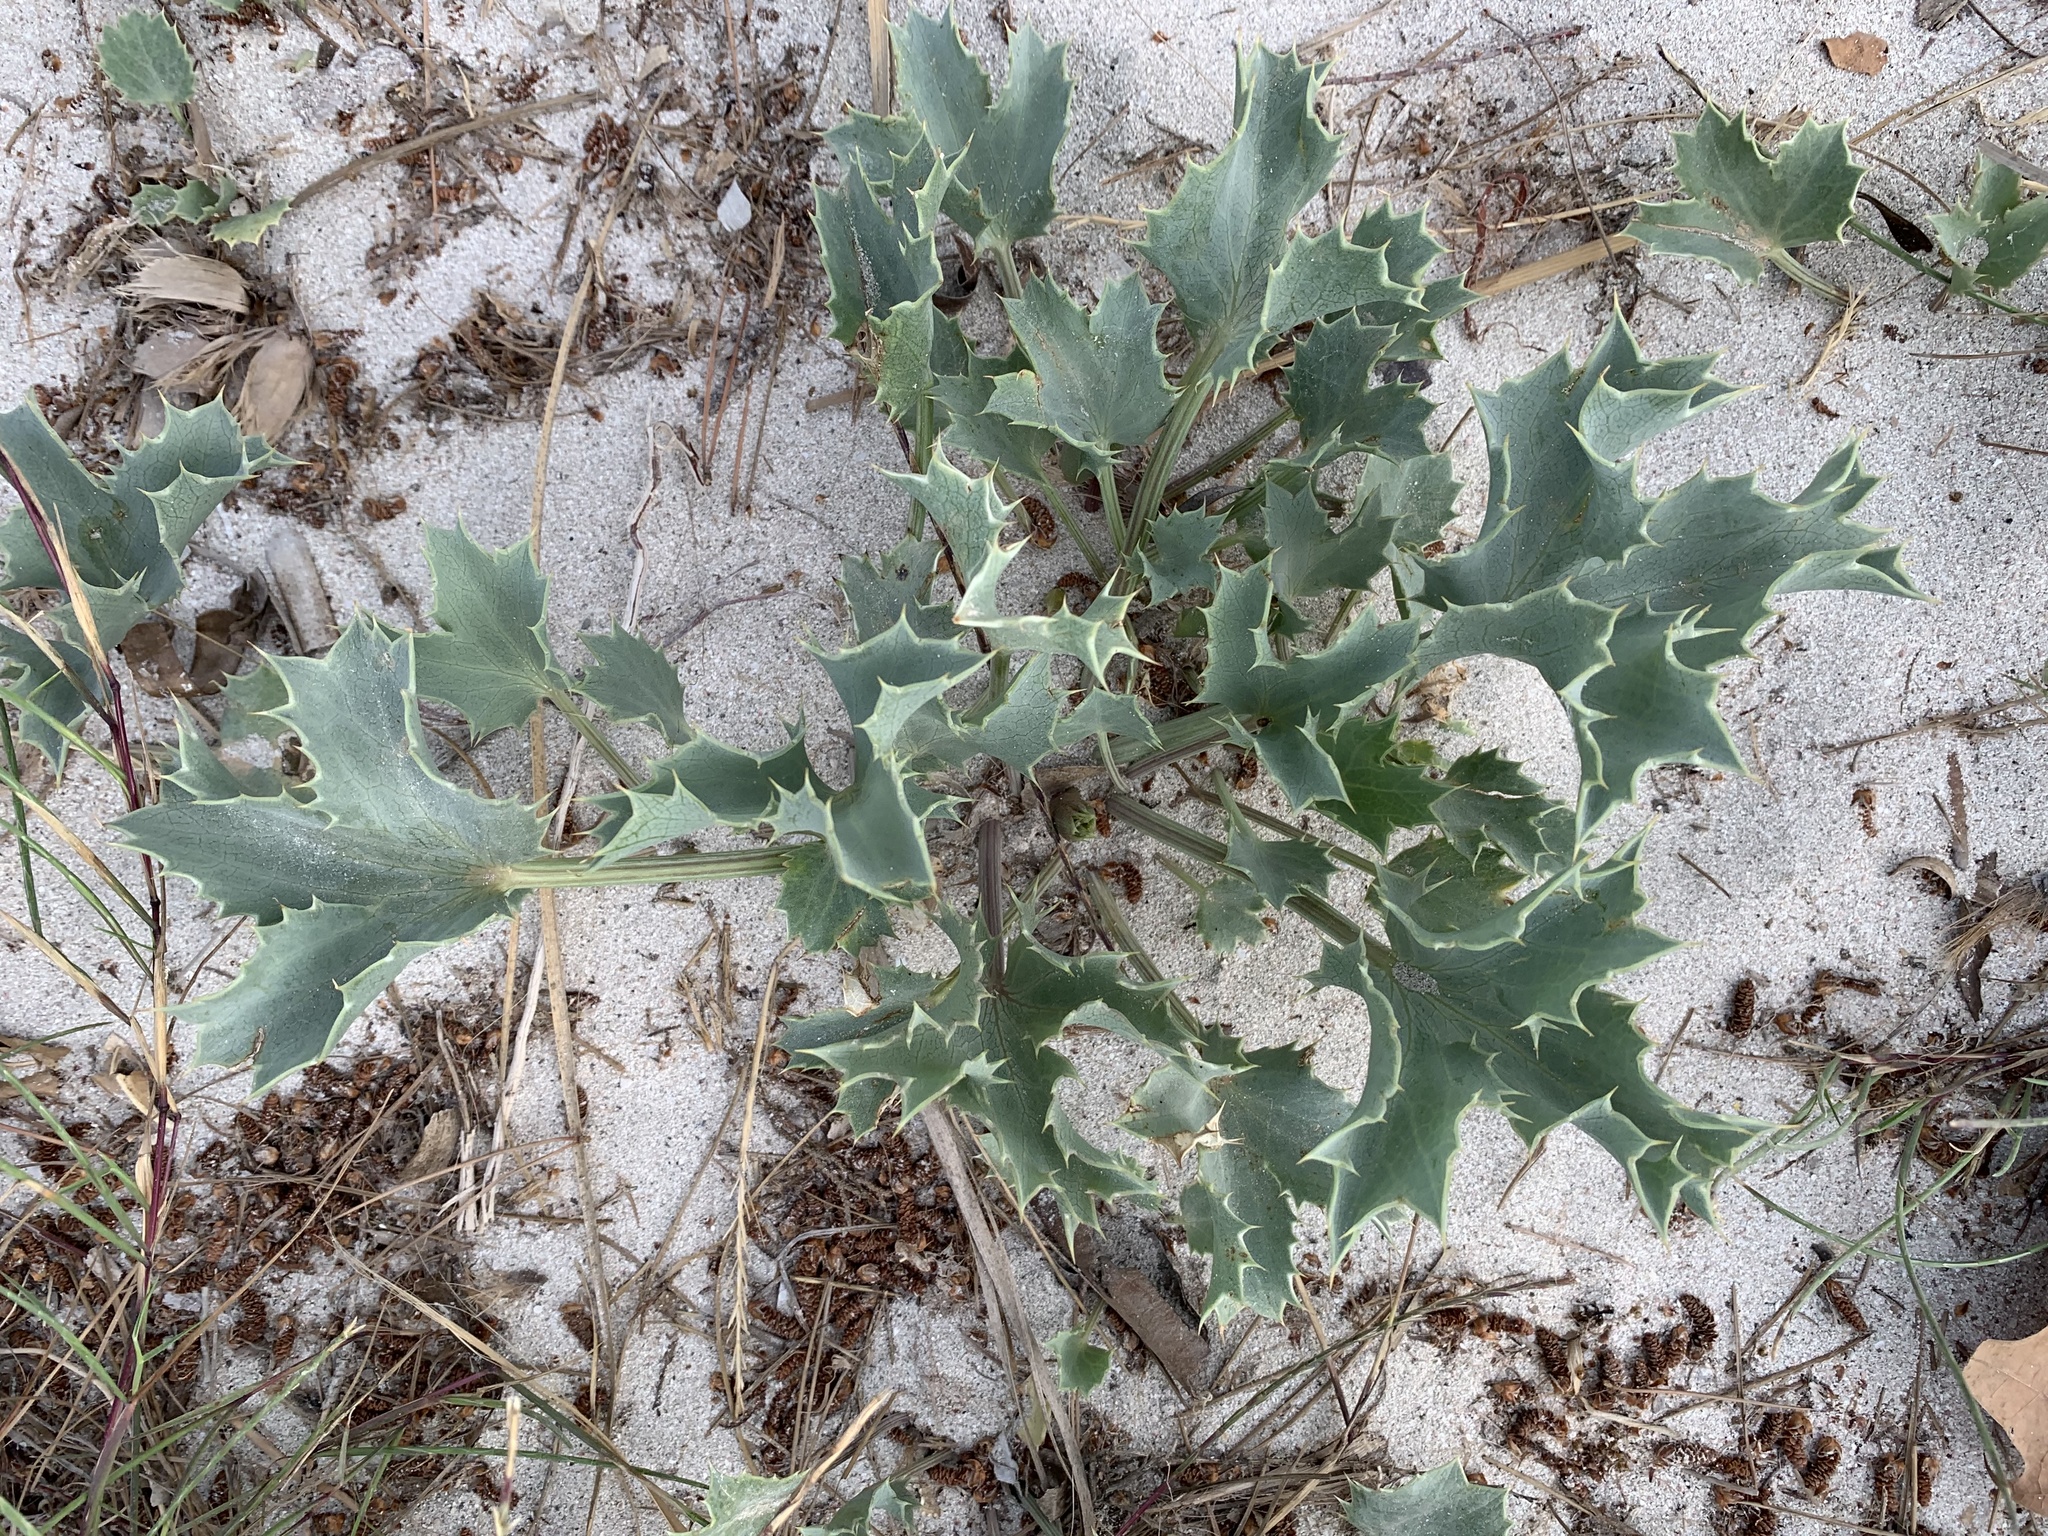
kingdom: Plantae
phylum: Tracheophyta
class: Magnoliopsida
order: Apiales
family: Apiaceae
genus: Eryngium
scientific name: Eryngium maritimum
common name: Sea-holly
